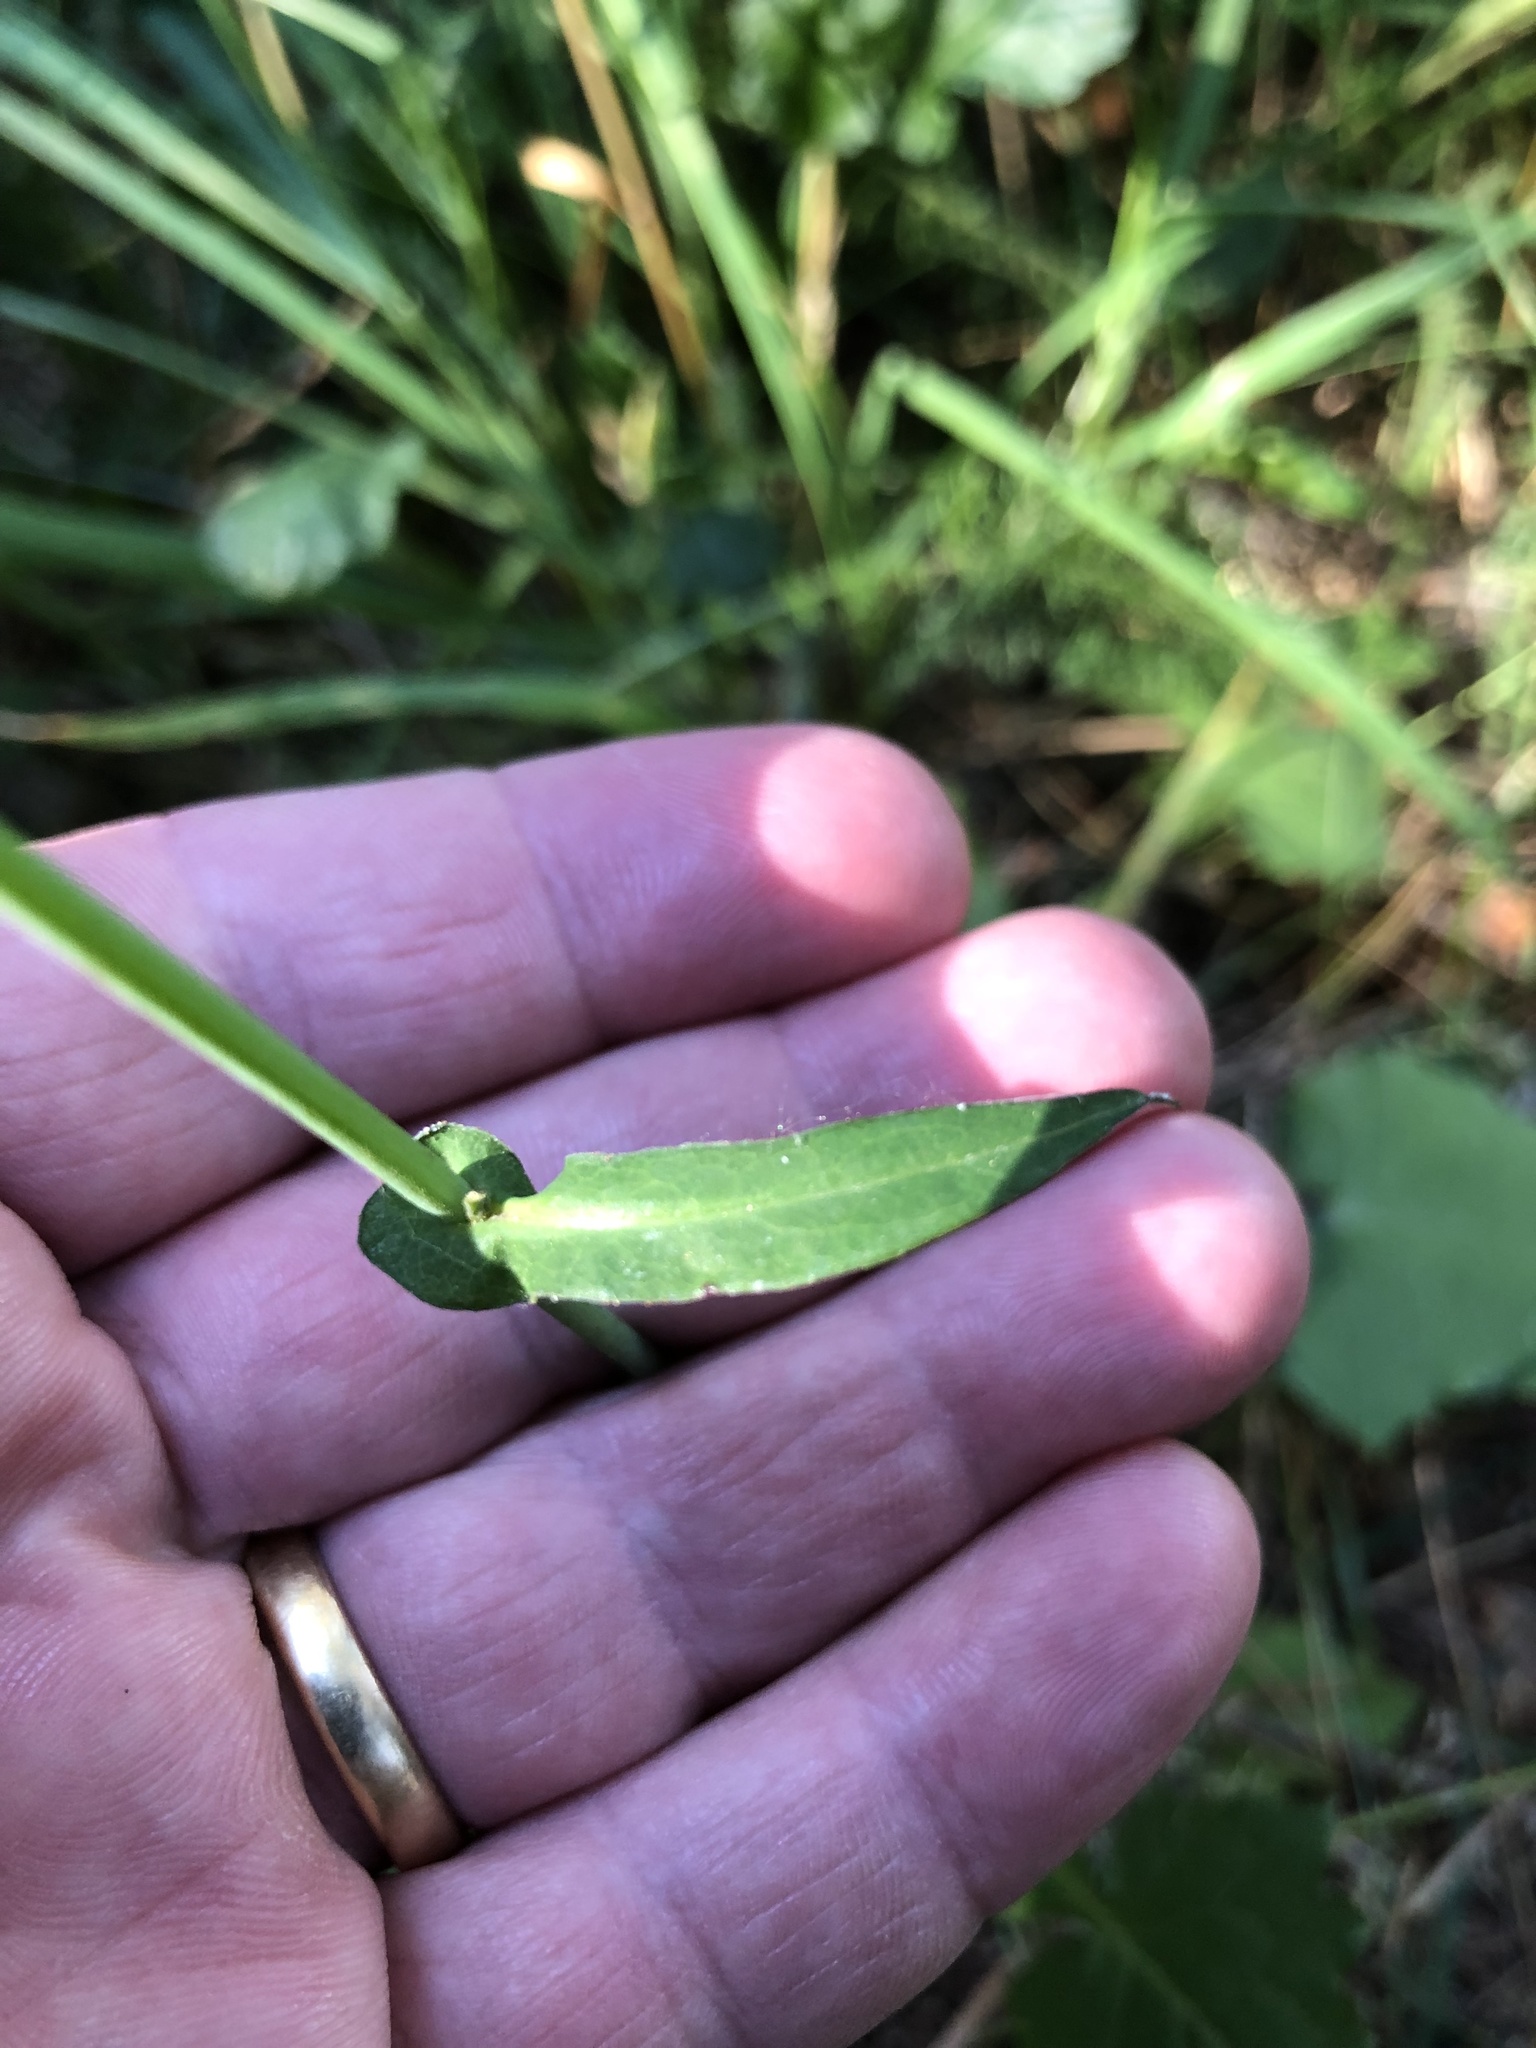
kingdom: Plantae
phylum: Tracheophyta
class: Magnoliopsida
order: Asterales
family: Asteraceae
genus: Mycelis
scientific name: Mycelis muralis
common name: Wall lettuce
